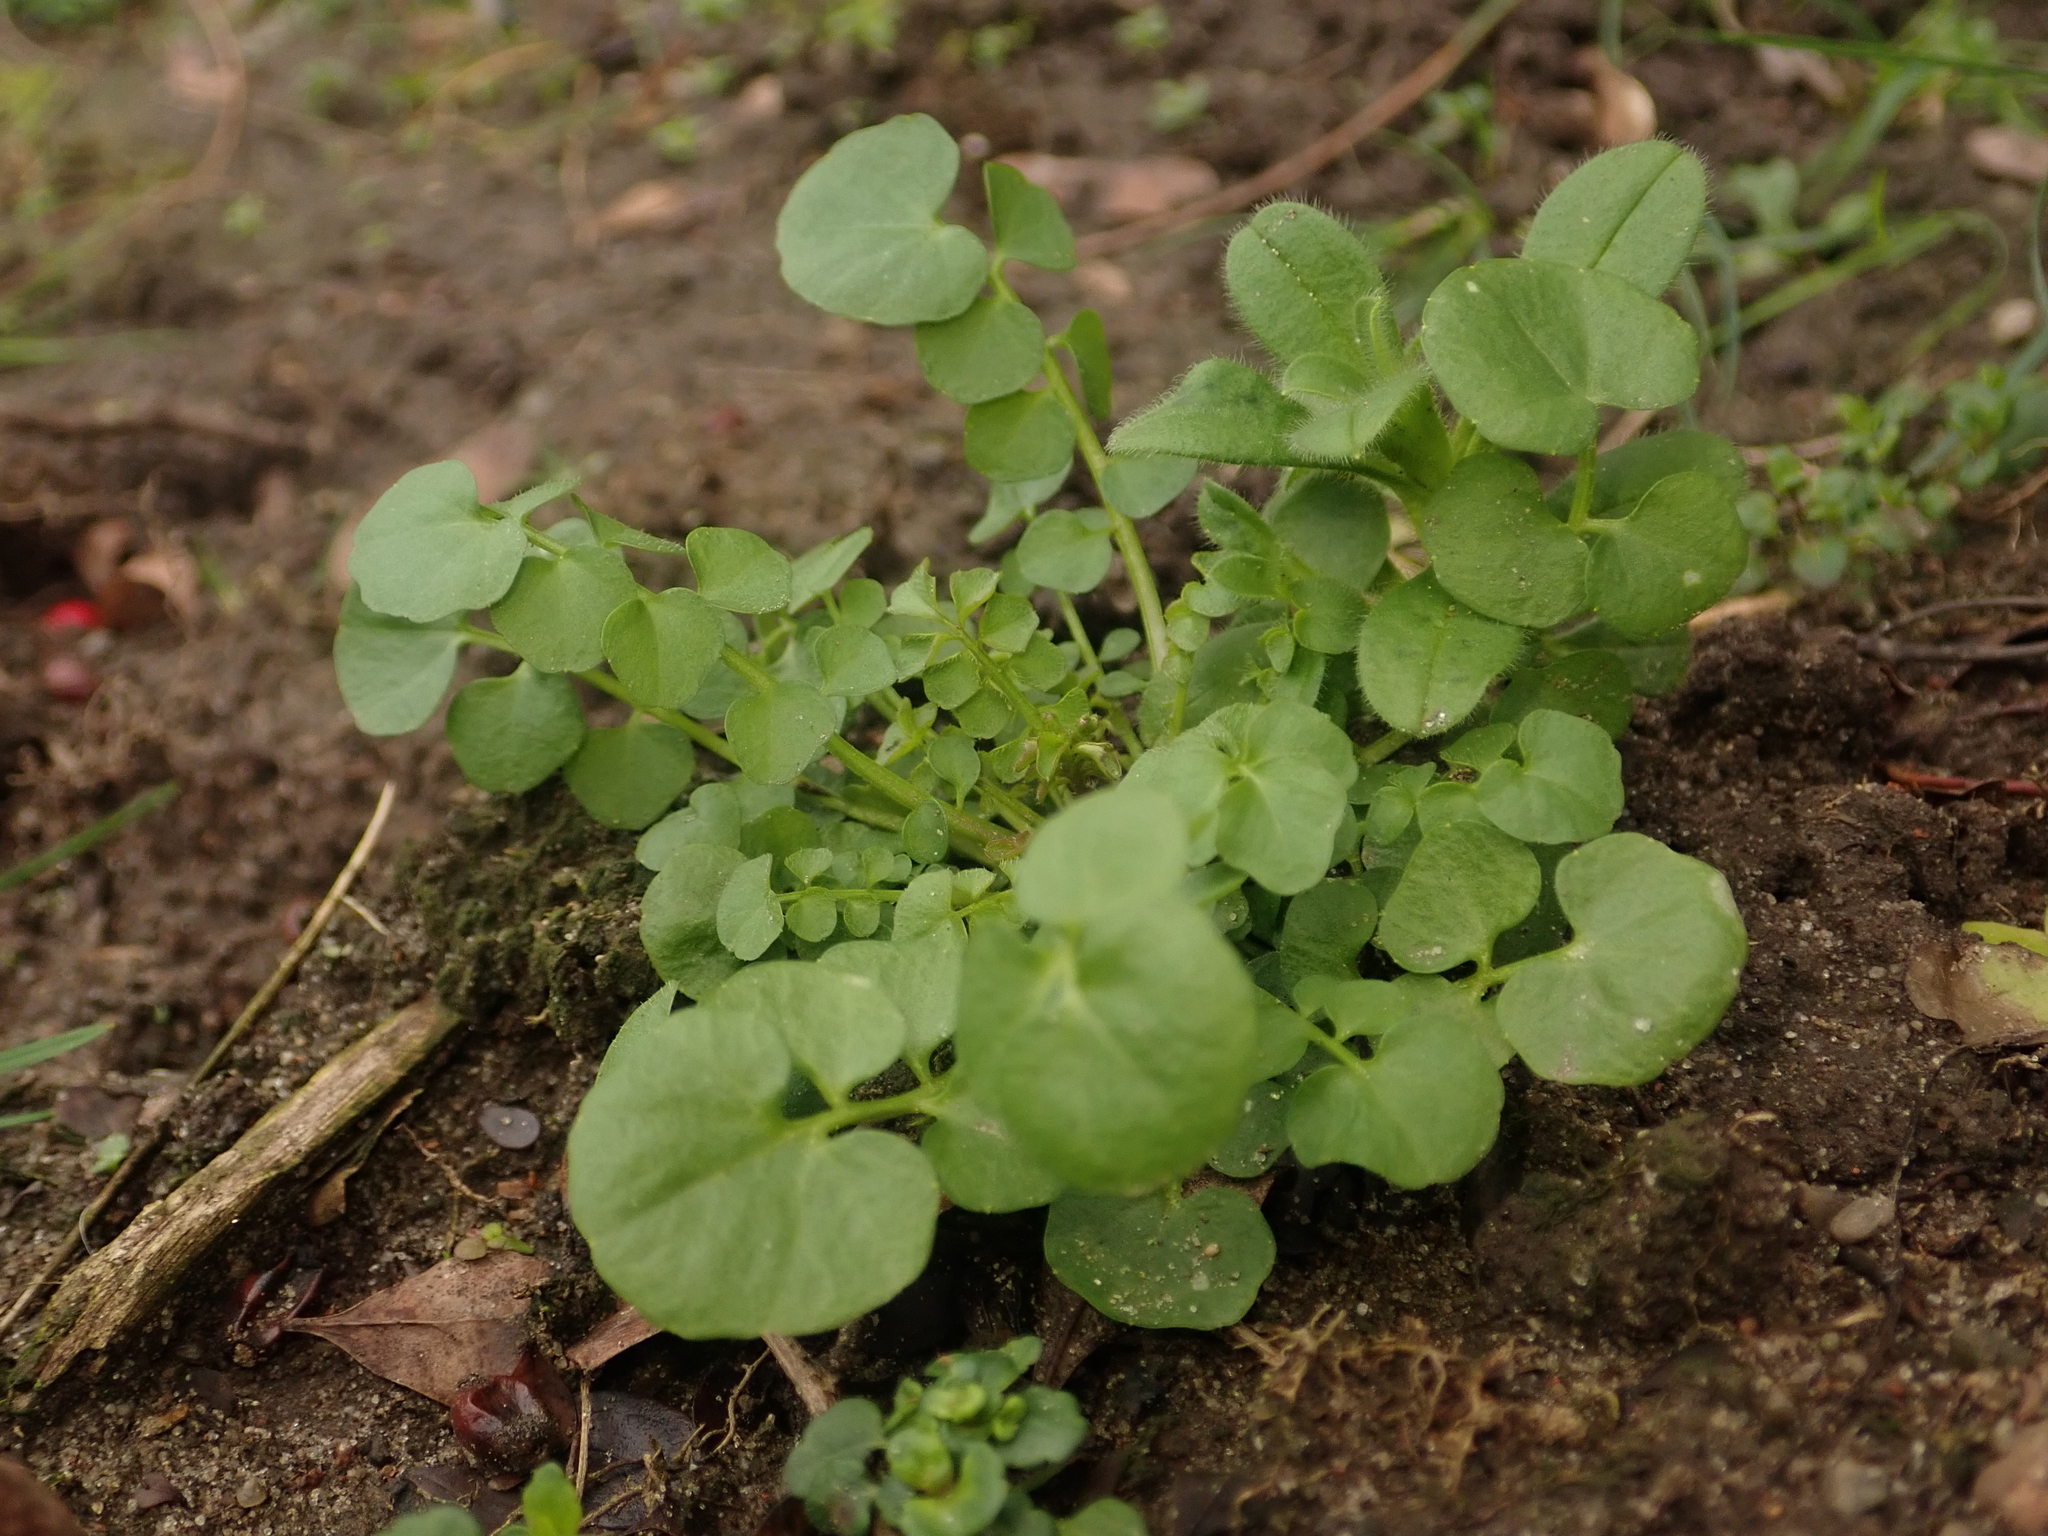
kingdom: Plantae
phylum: Tracheophyta
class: Magnoliopsida
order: Brassicales
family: Brassicaceae
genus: Cardamine
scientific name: Cardamine hirsuta
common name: Hairy bittercress
